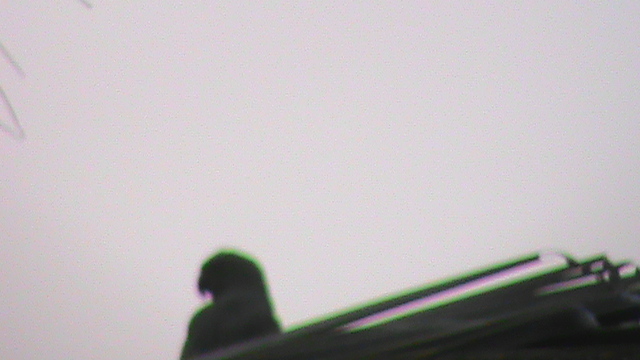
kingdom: Animalia
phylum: Chordata
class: Aves
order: Psittaciformes
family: Psittacidae
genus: Psittacula
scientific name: Psittacula krameri
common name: Rose-ringed parakeet
